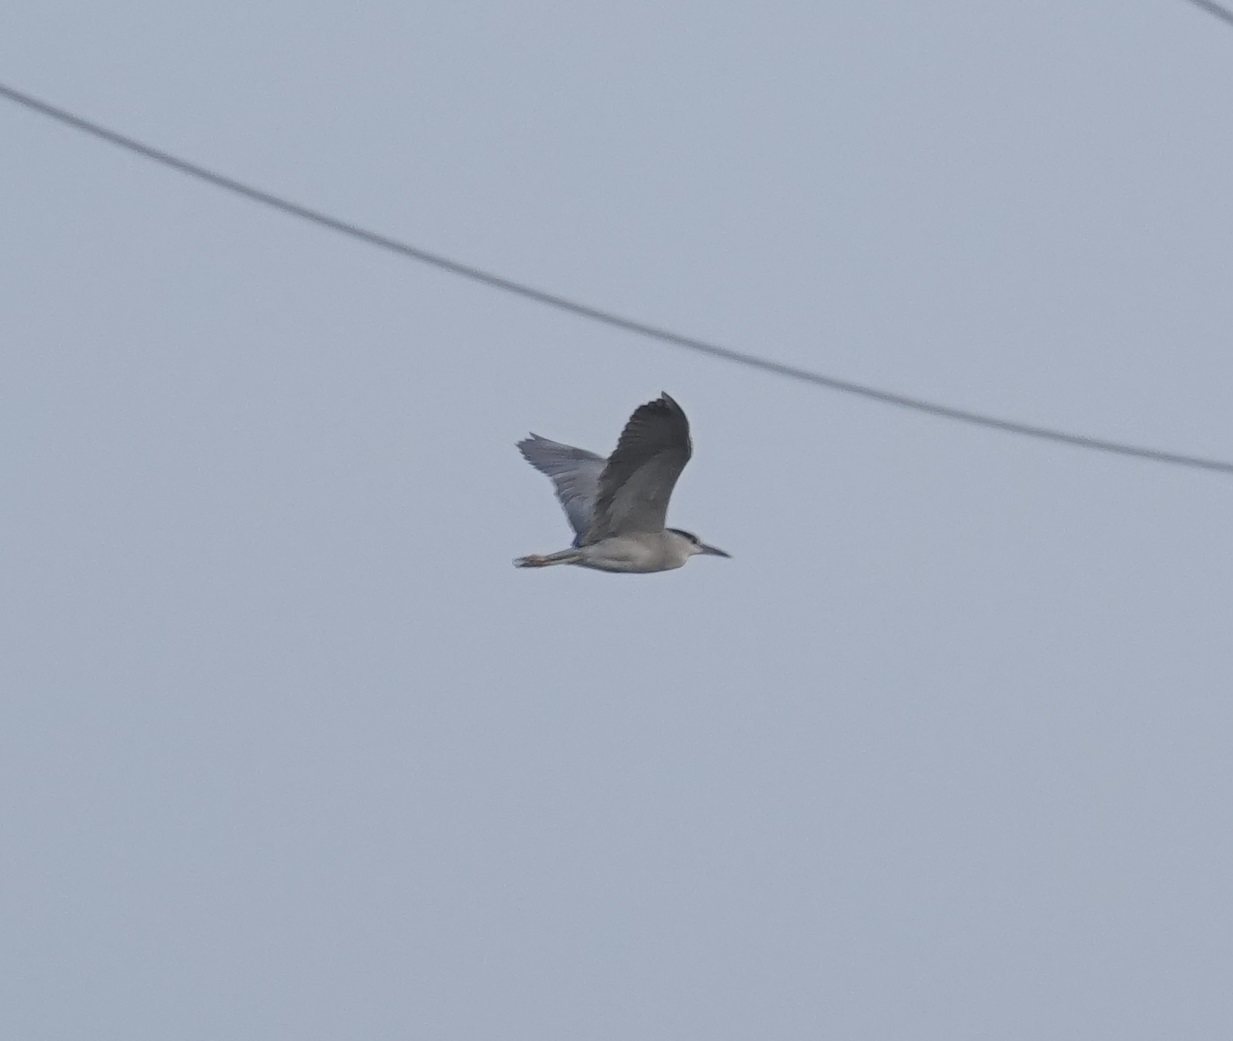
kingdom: Animalia
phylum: Chordata
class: Aves
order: Pelecaniformes
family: Ardeidae
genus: Nycticorax
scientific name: Nycticorax nycticorax
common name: Black-crowned night heron
